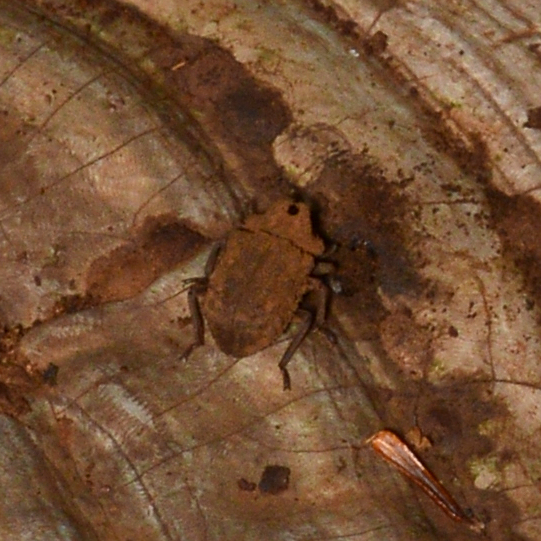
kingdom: Animalia
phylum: Arthropoda
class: Insecta
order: Coleoptera
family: Tenebrionidae
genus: Gnatocerus
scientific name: Gnatocerus cornutus
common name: Broad-horned flour beetle
